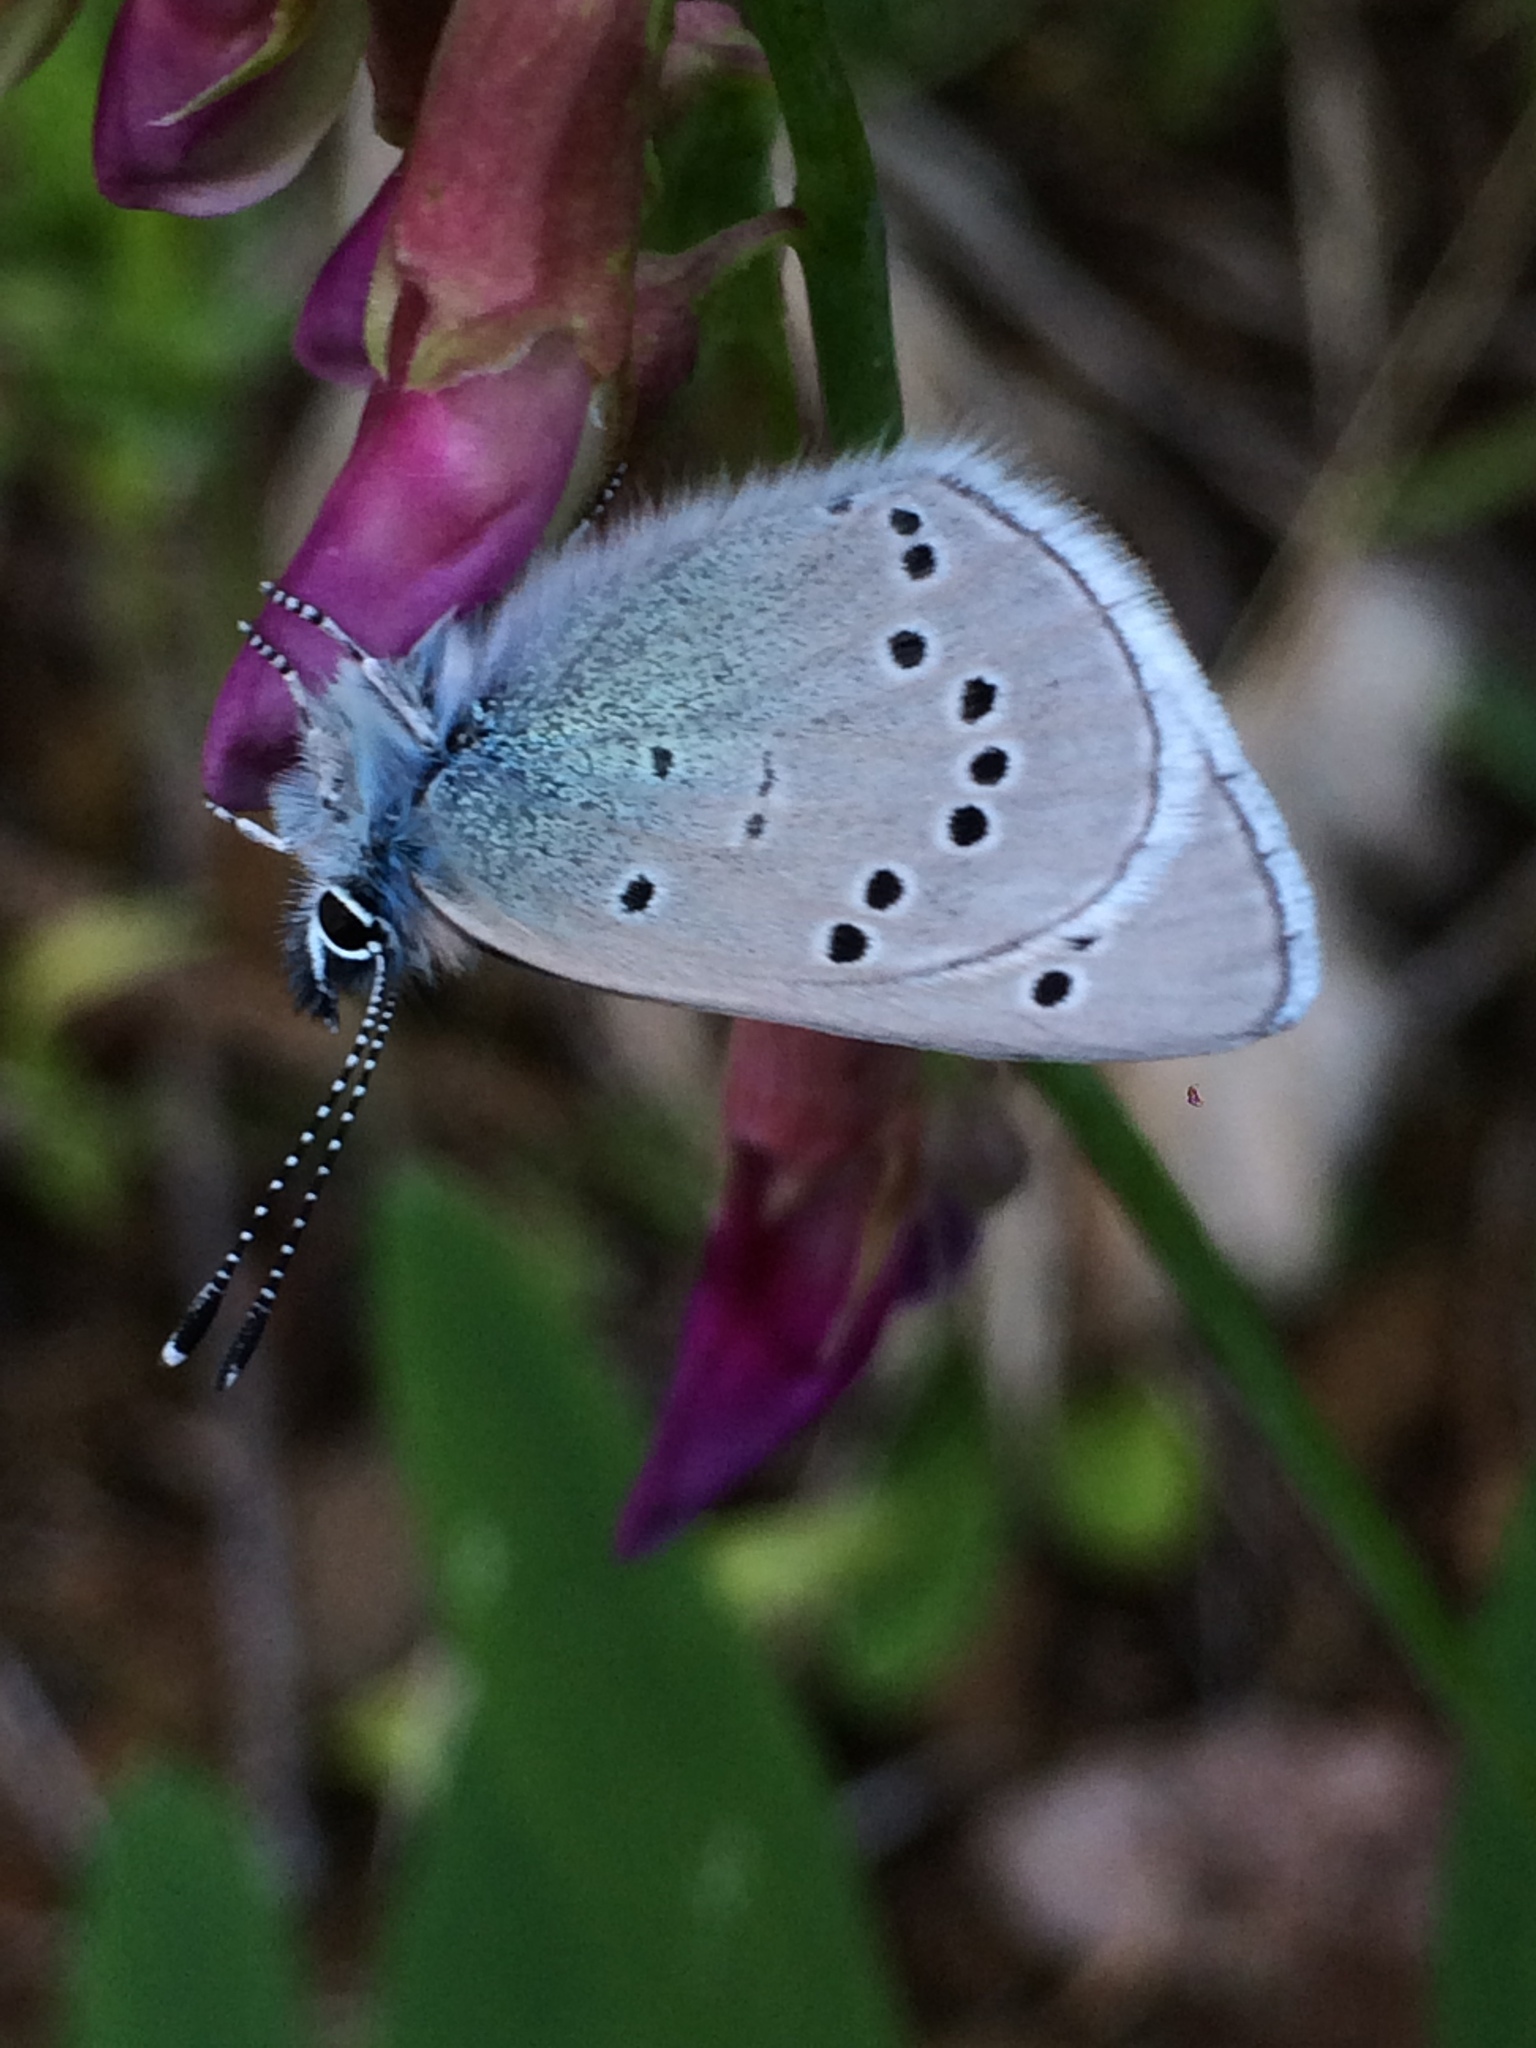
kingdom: Animalia
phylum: Arthropoda
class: Insecta
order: Lepidoptera
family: Lycaenidae
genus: Glaucopsyche
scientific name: Glaucopsyche lygdamus
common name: Silvery blue
